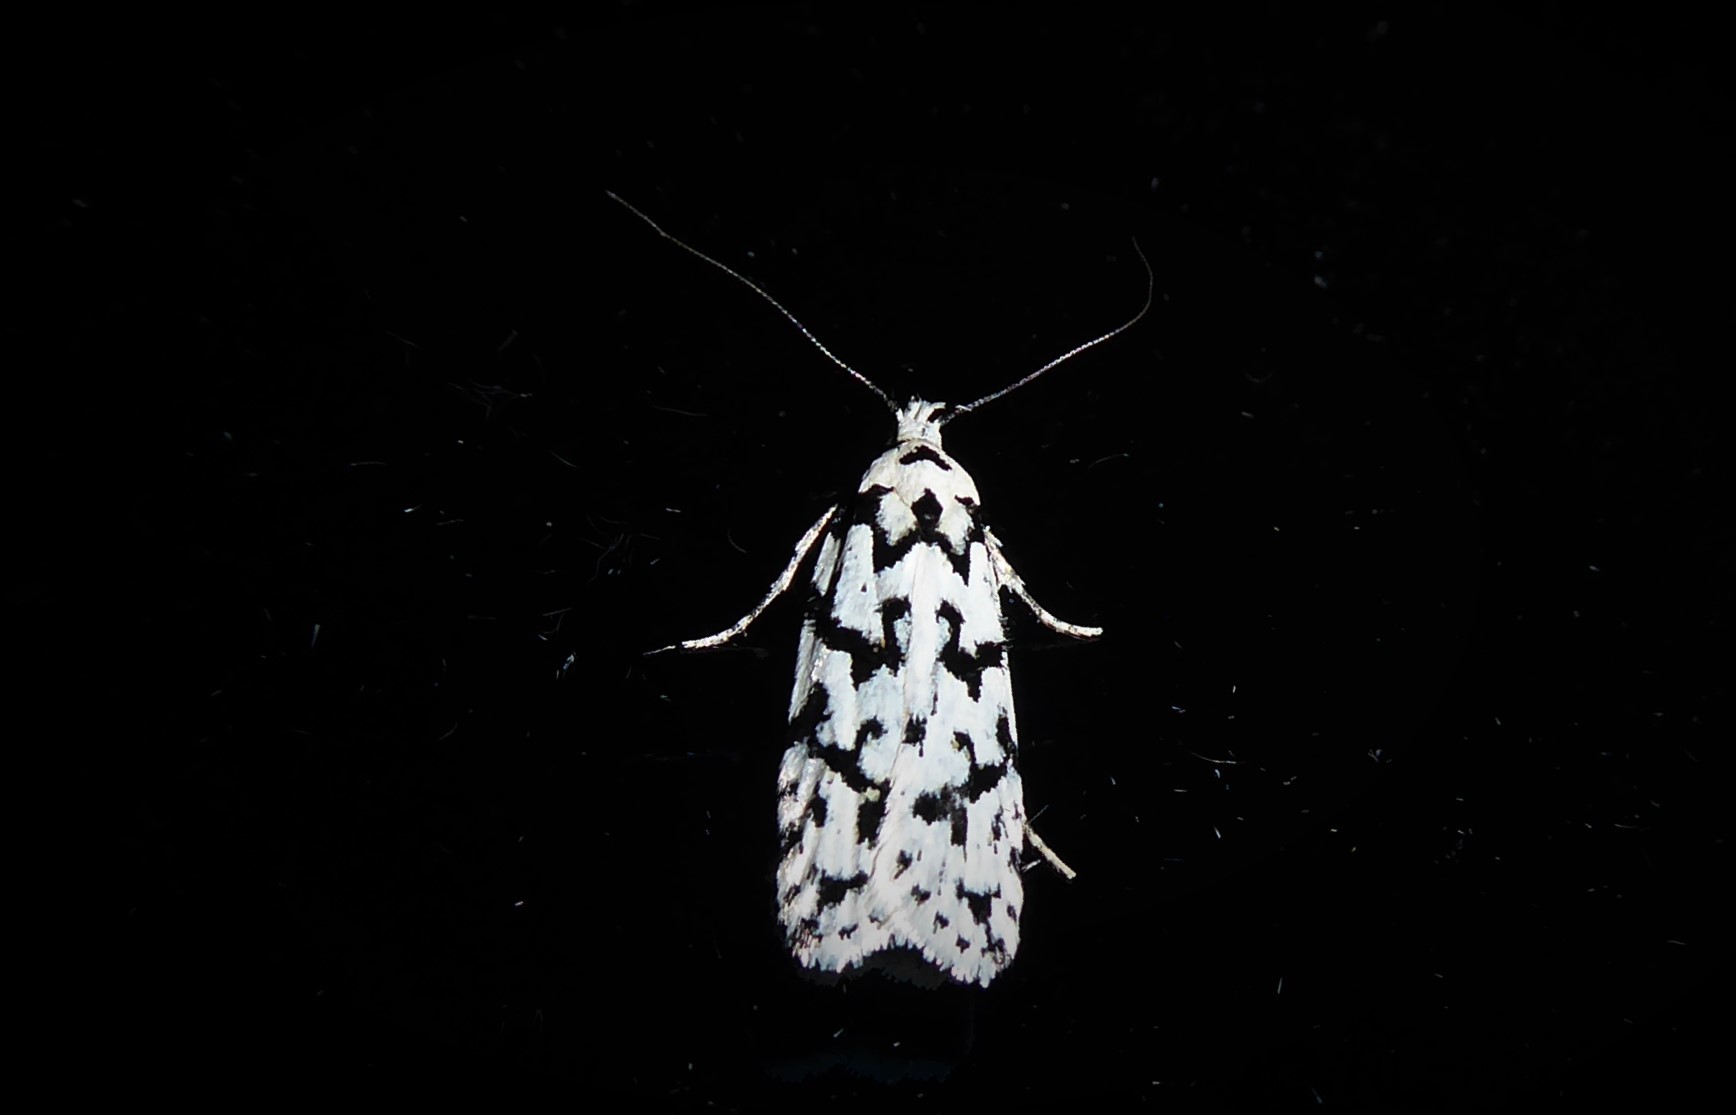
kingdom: Animalia
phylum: Arthropoda
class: Insecta
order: Lepidoptera
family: Oecophoridae
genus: Izatha
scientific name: Izatha katadiktya
